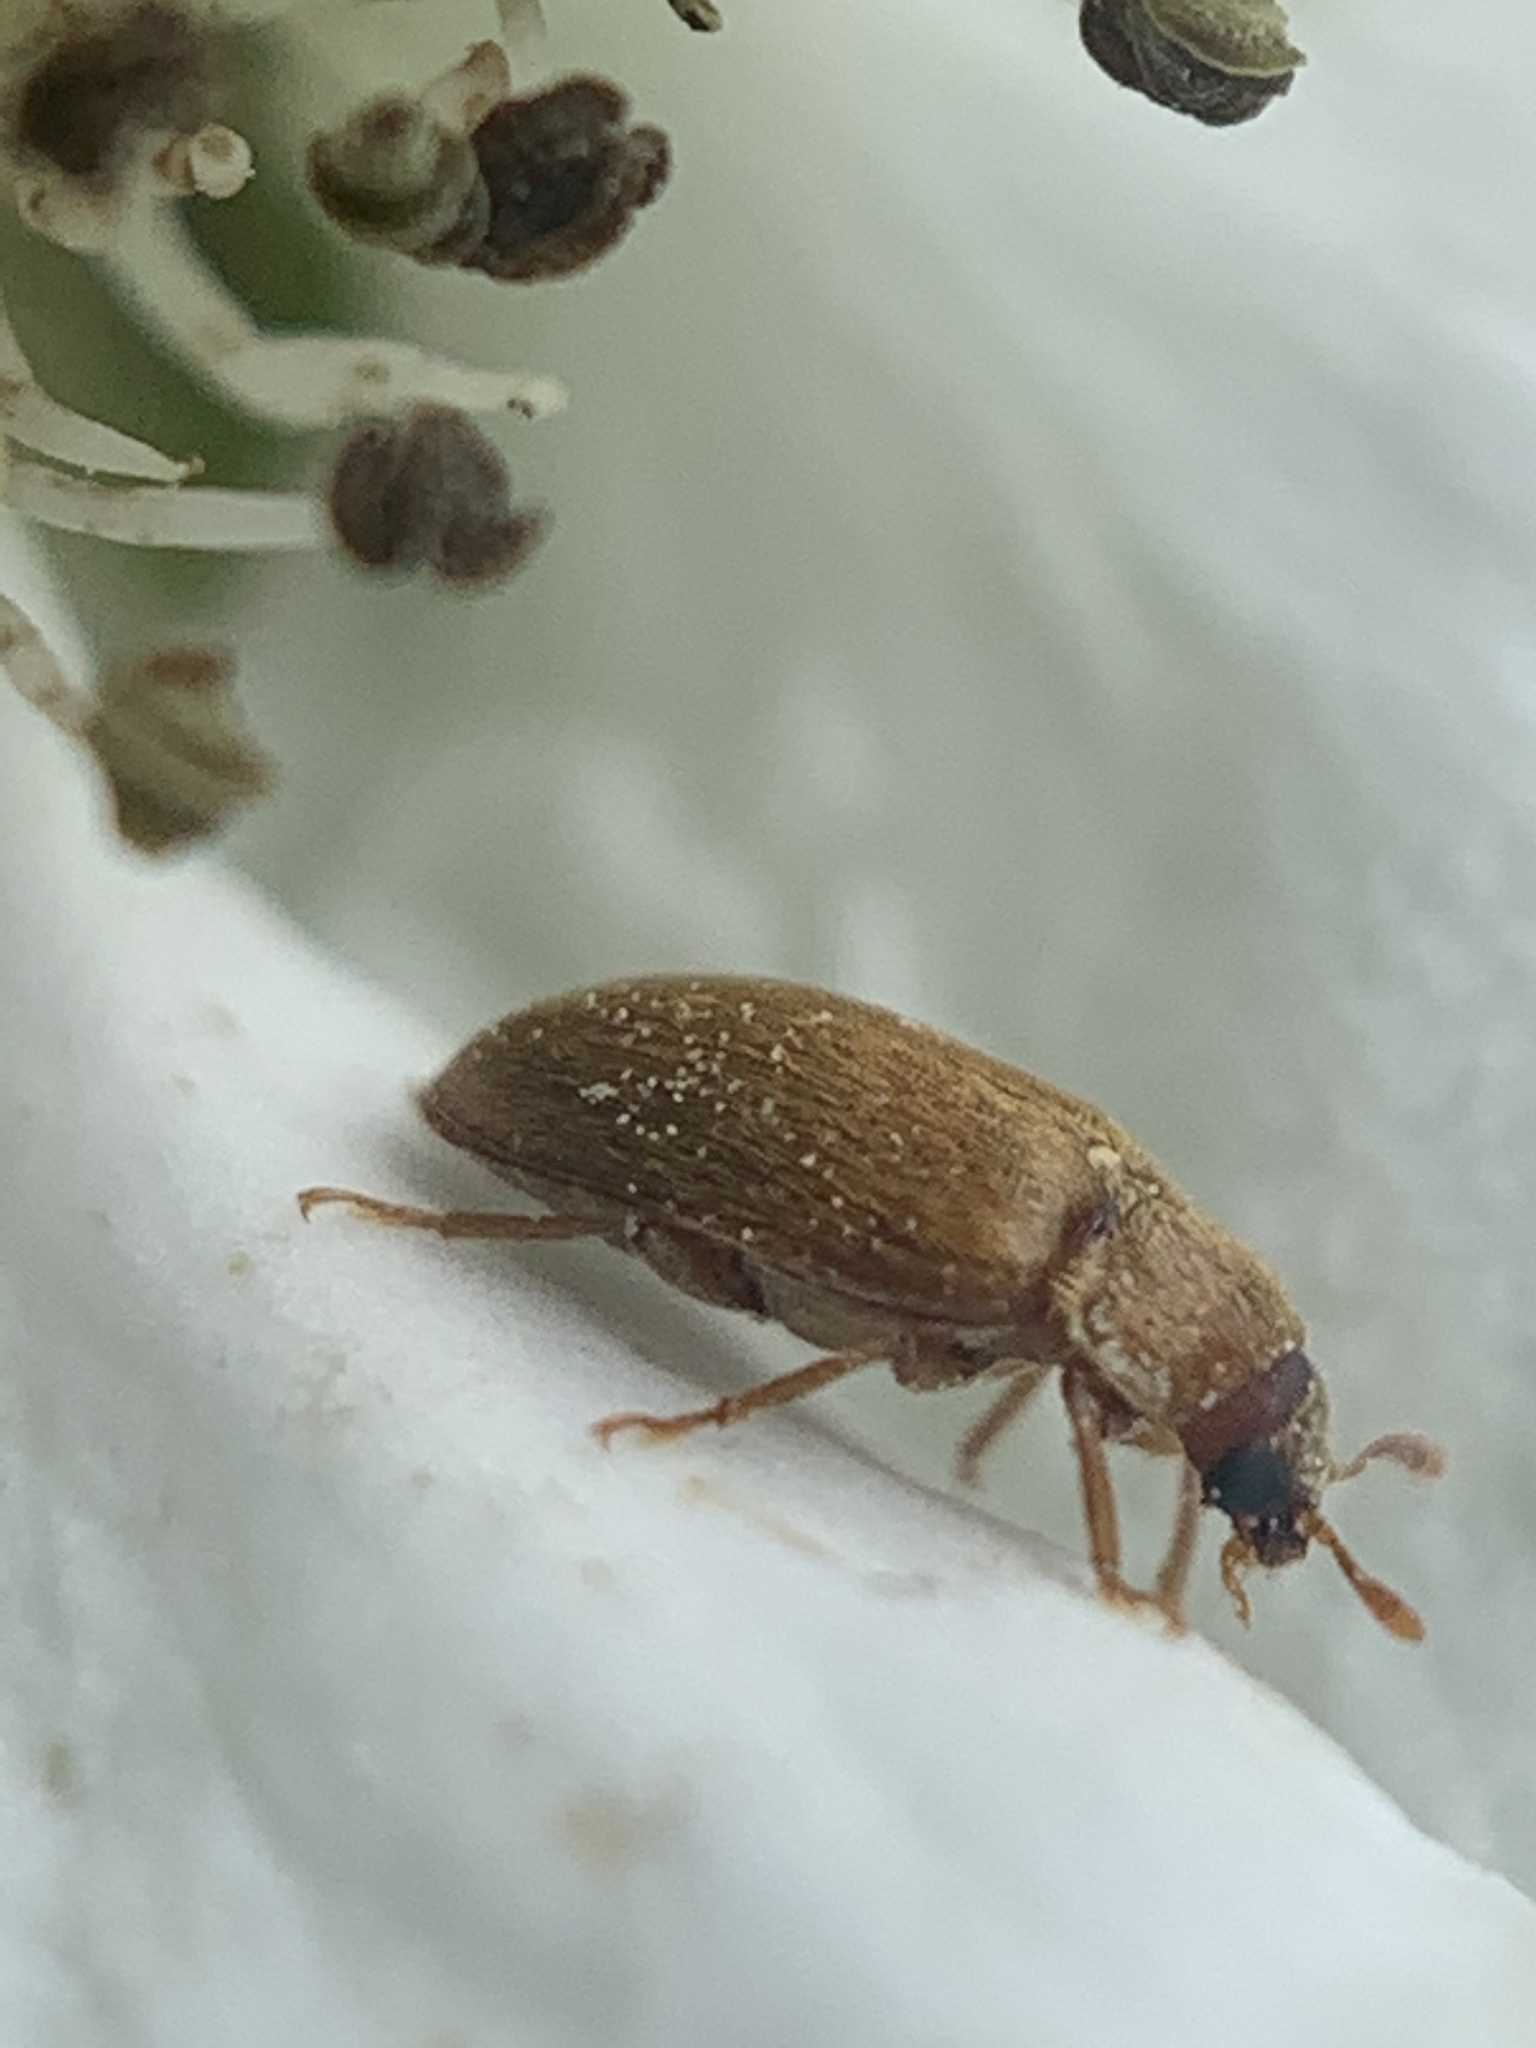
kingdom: Animalia
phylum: Arthropoda
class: Insecta
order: Coleoptera
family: Byturidae
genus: Byturus
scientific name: Byturus unicolor
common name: Raspberry fruitworm beetle
